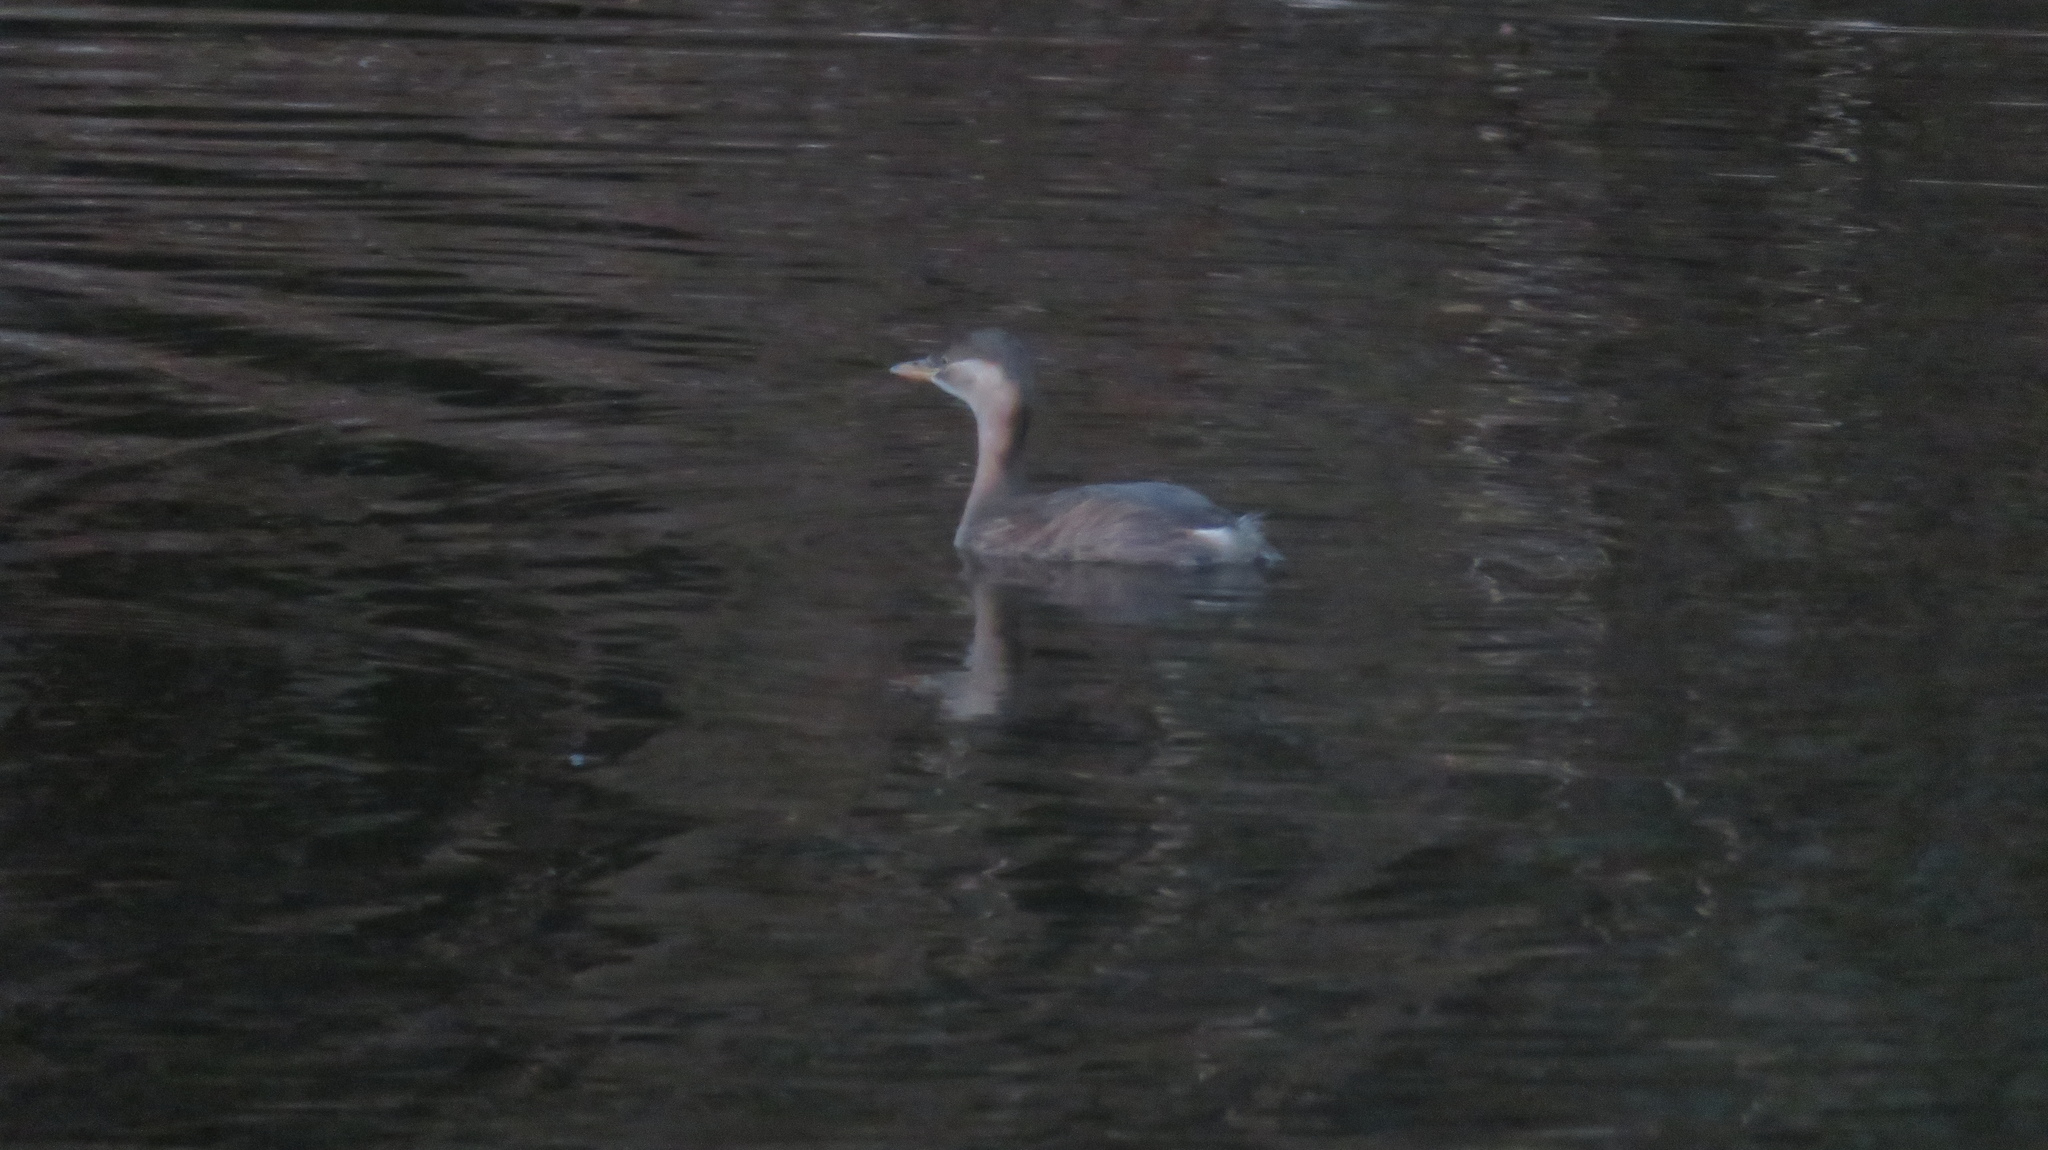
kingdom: Animalia
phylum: Chordata
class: Aves
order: Podicipediformes
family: Podicipedidae
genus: Tachybaptus
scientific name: Tachybaptus ruficollis
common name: Little grebe
